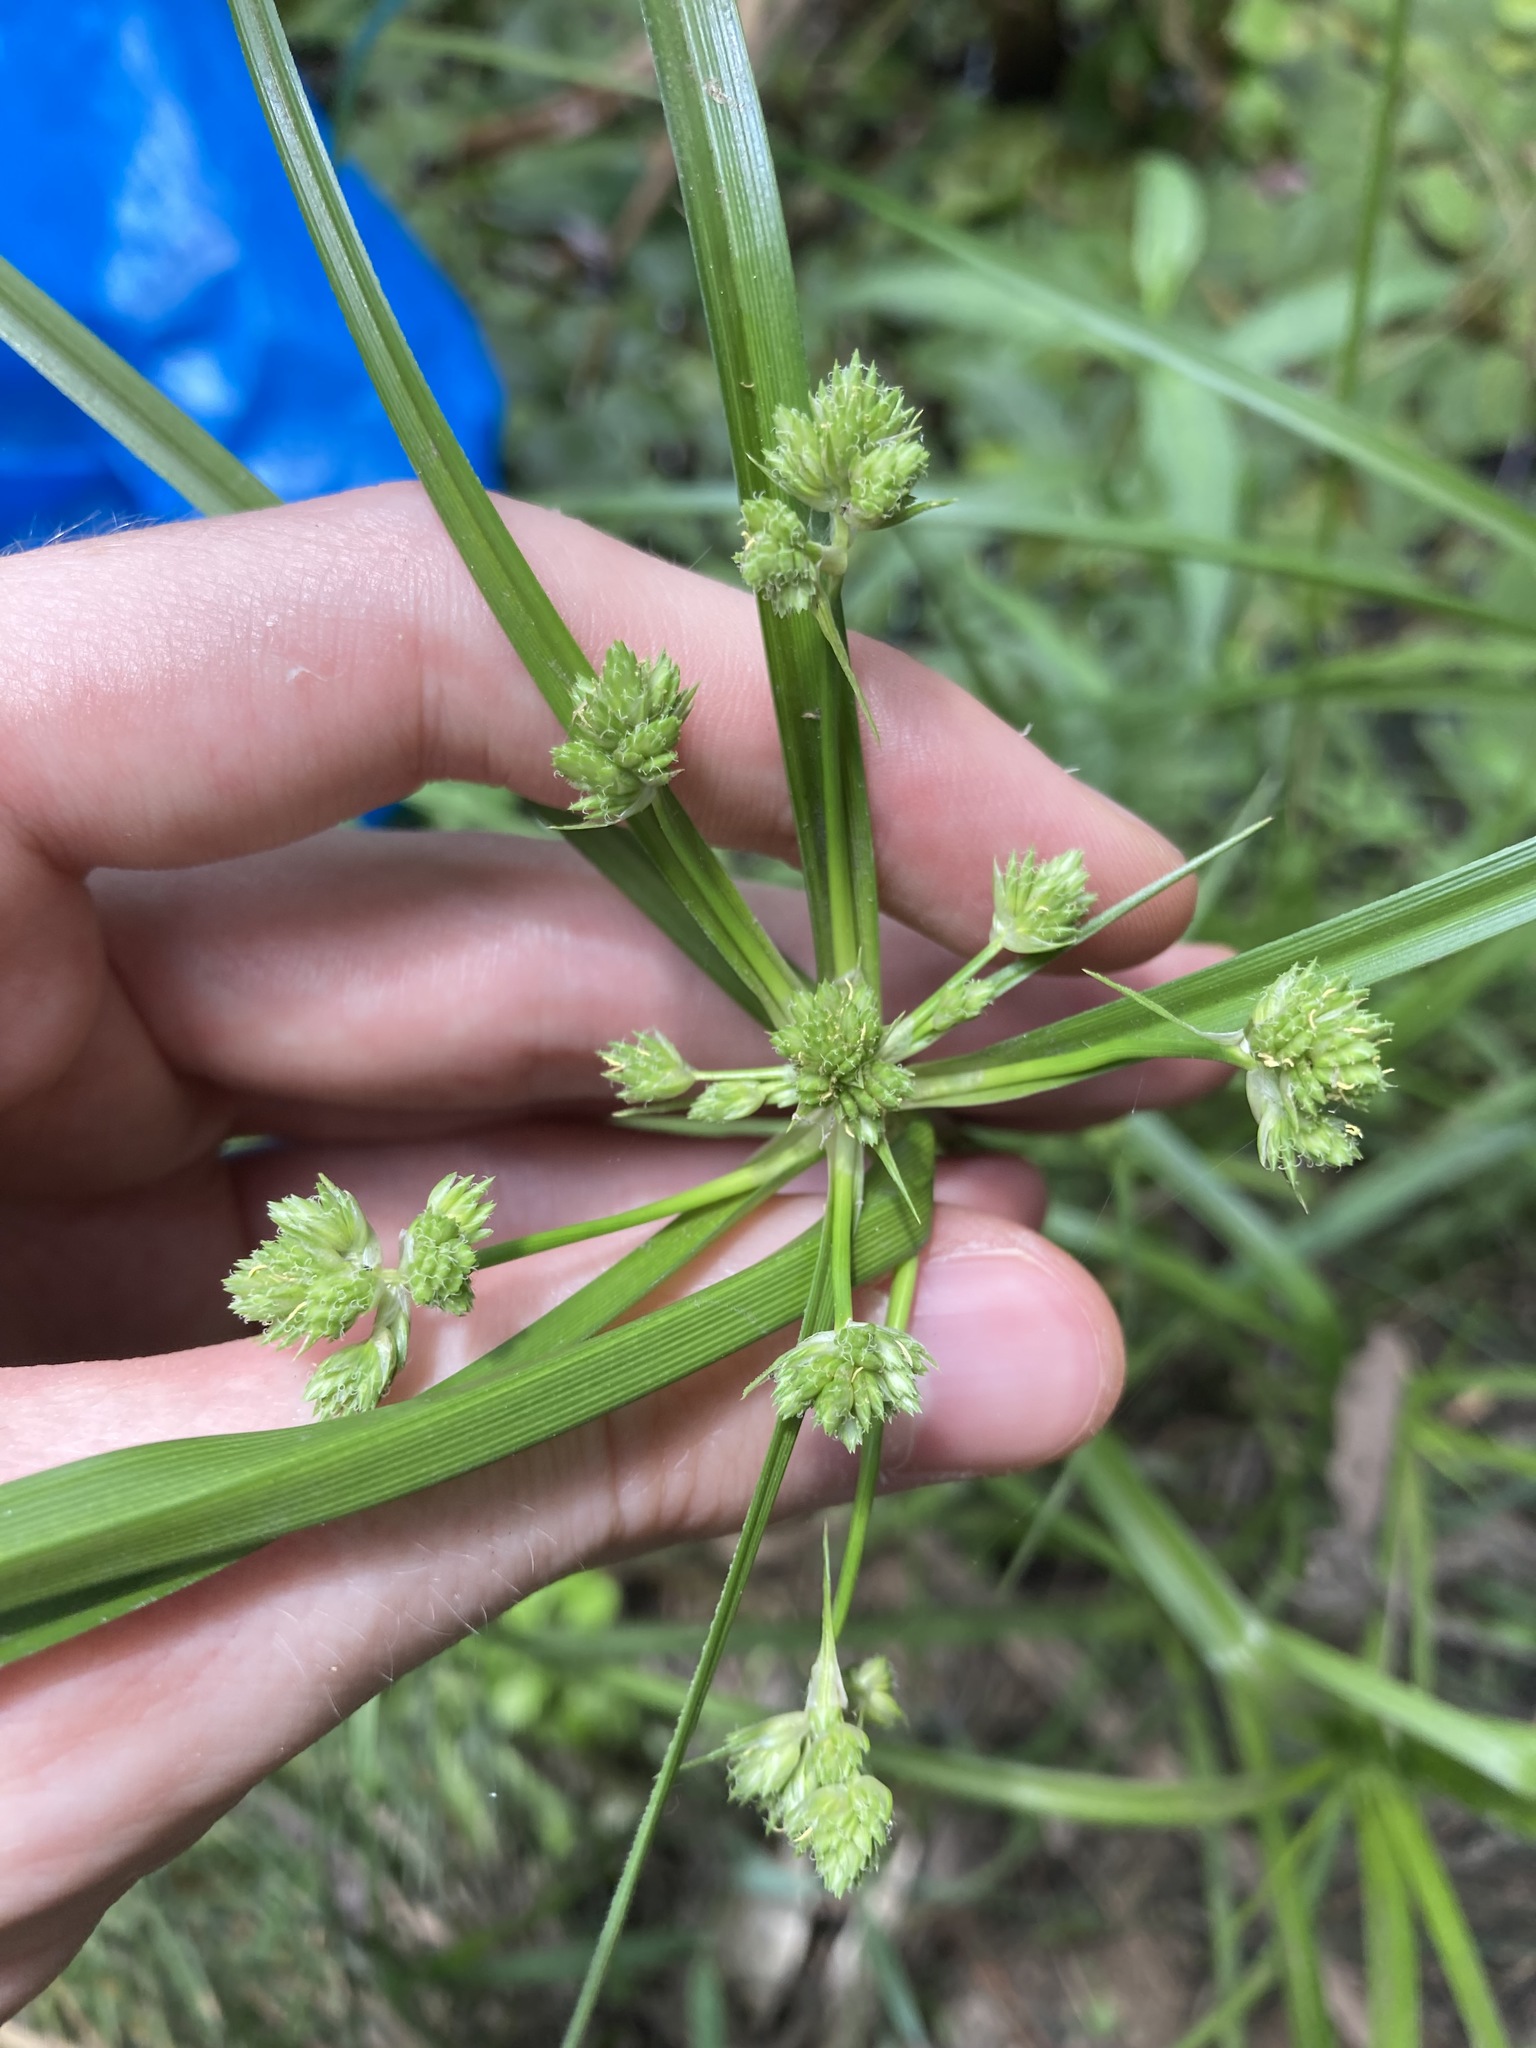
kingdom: Plantae
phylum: Tracheophyta
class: Liliopsida
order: Poales
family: Cyperaceae
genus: Cyperus
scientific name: Cyperus eragrostis
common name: Tall flatsedge
